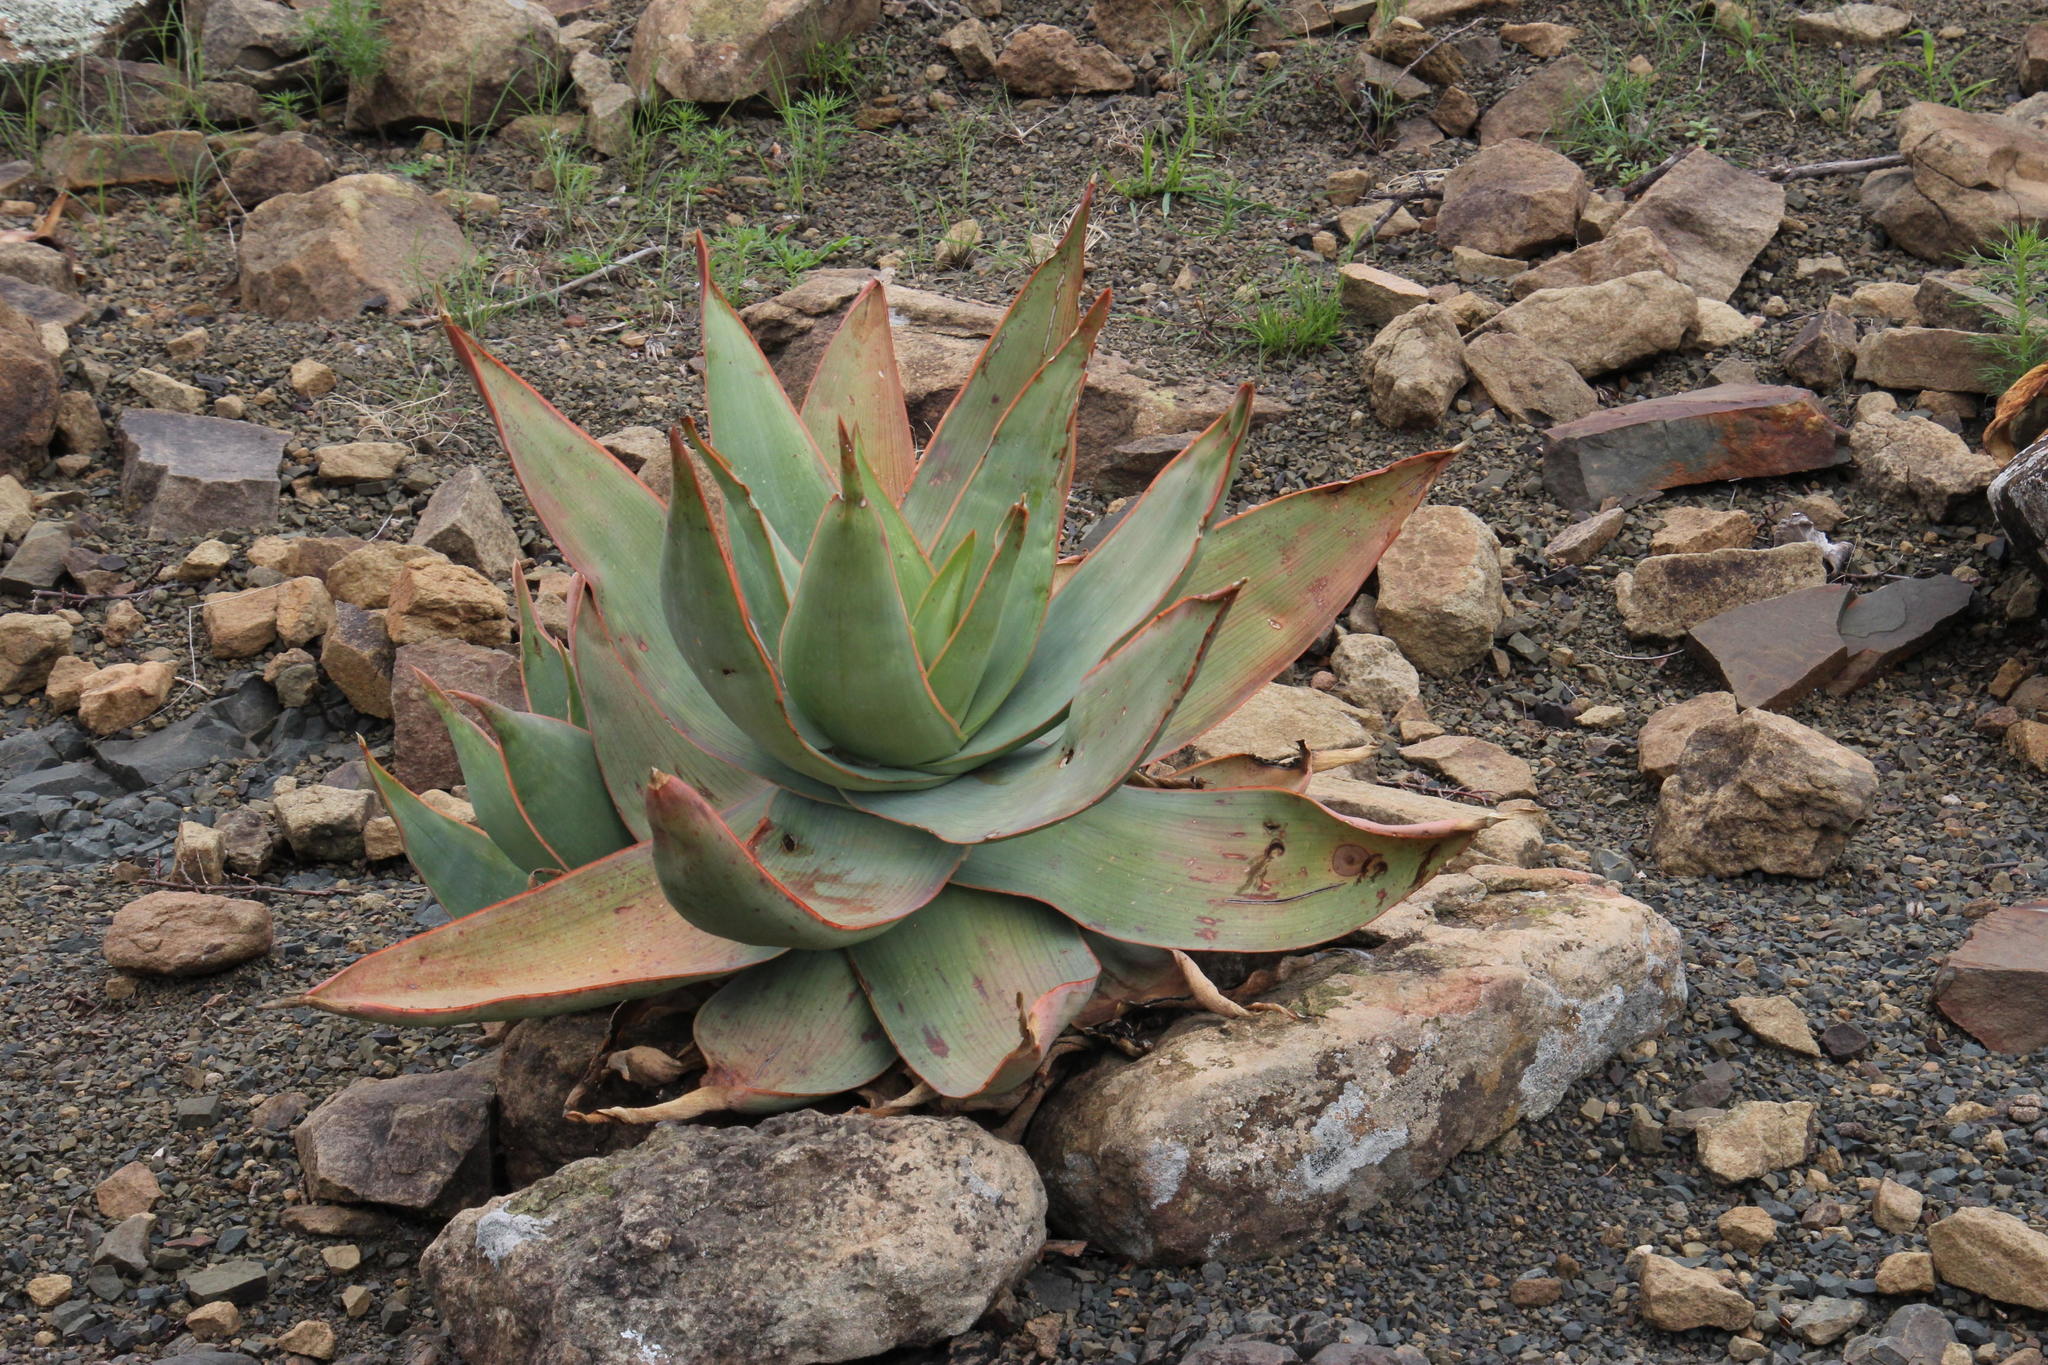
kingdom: Plantae
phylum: Tracheophyta
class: Liliopsida
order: Asparagales
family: Asphodelaceae
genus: Aloe
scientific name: Aloe striata
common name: Coral aloe
